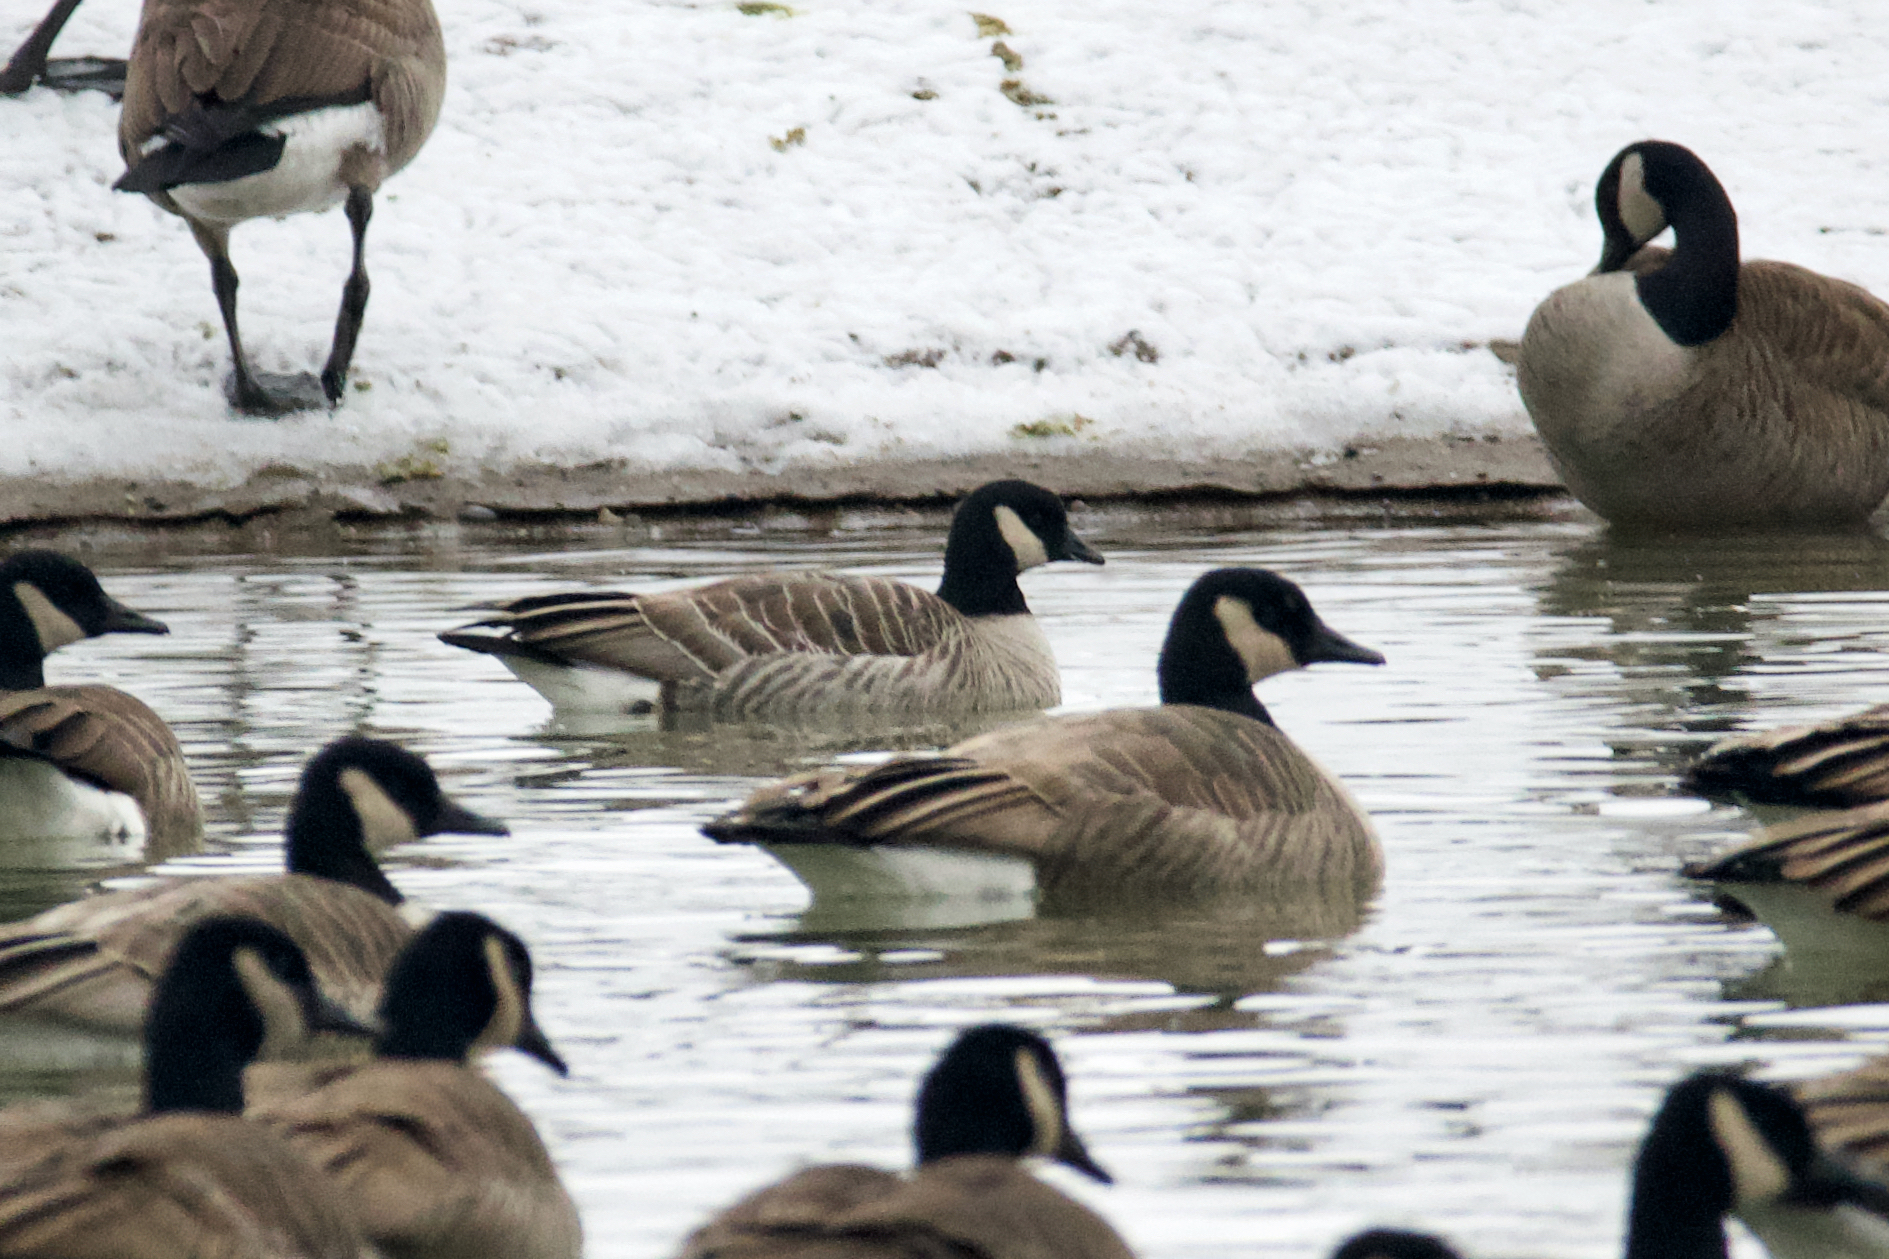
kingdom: Animalia
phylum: Chordata
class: Aves
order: Anseriformes
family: Anatidae
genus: Branta
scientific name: Branta hutchinsii
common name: Cackling goose
